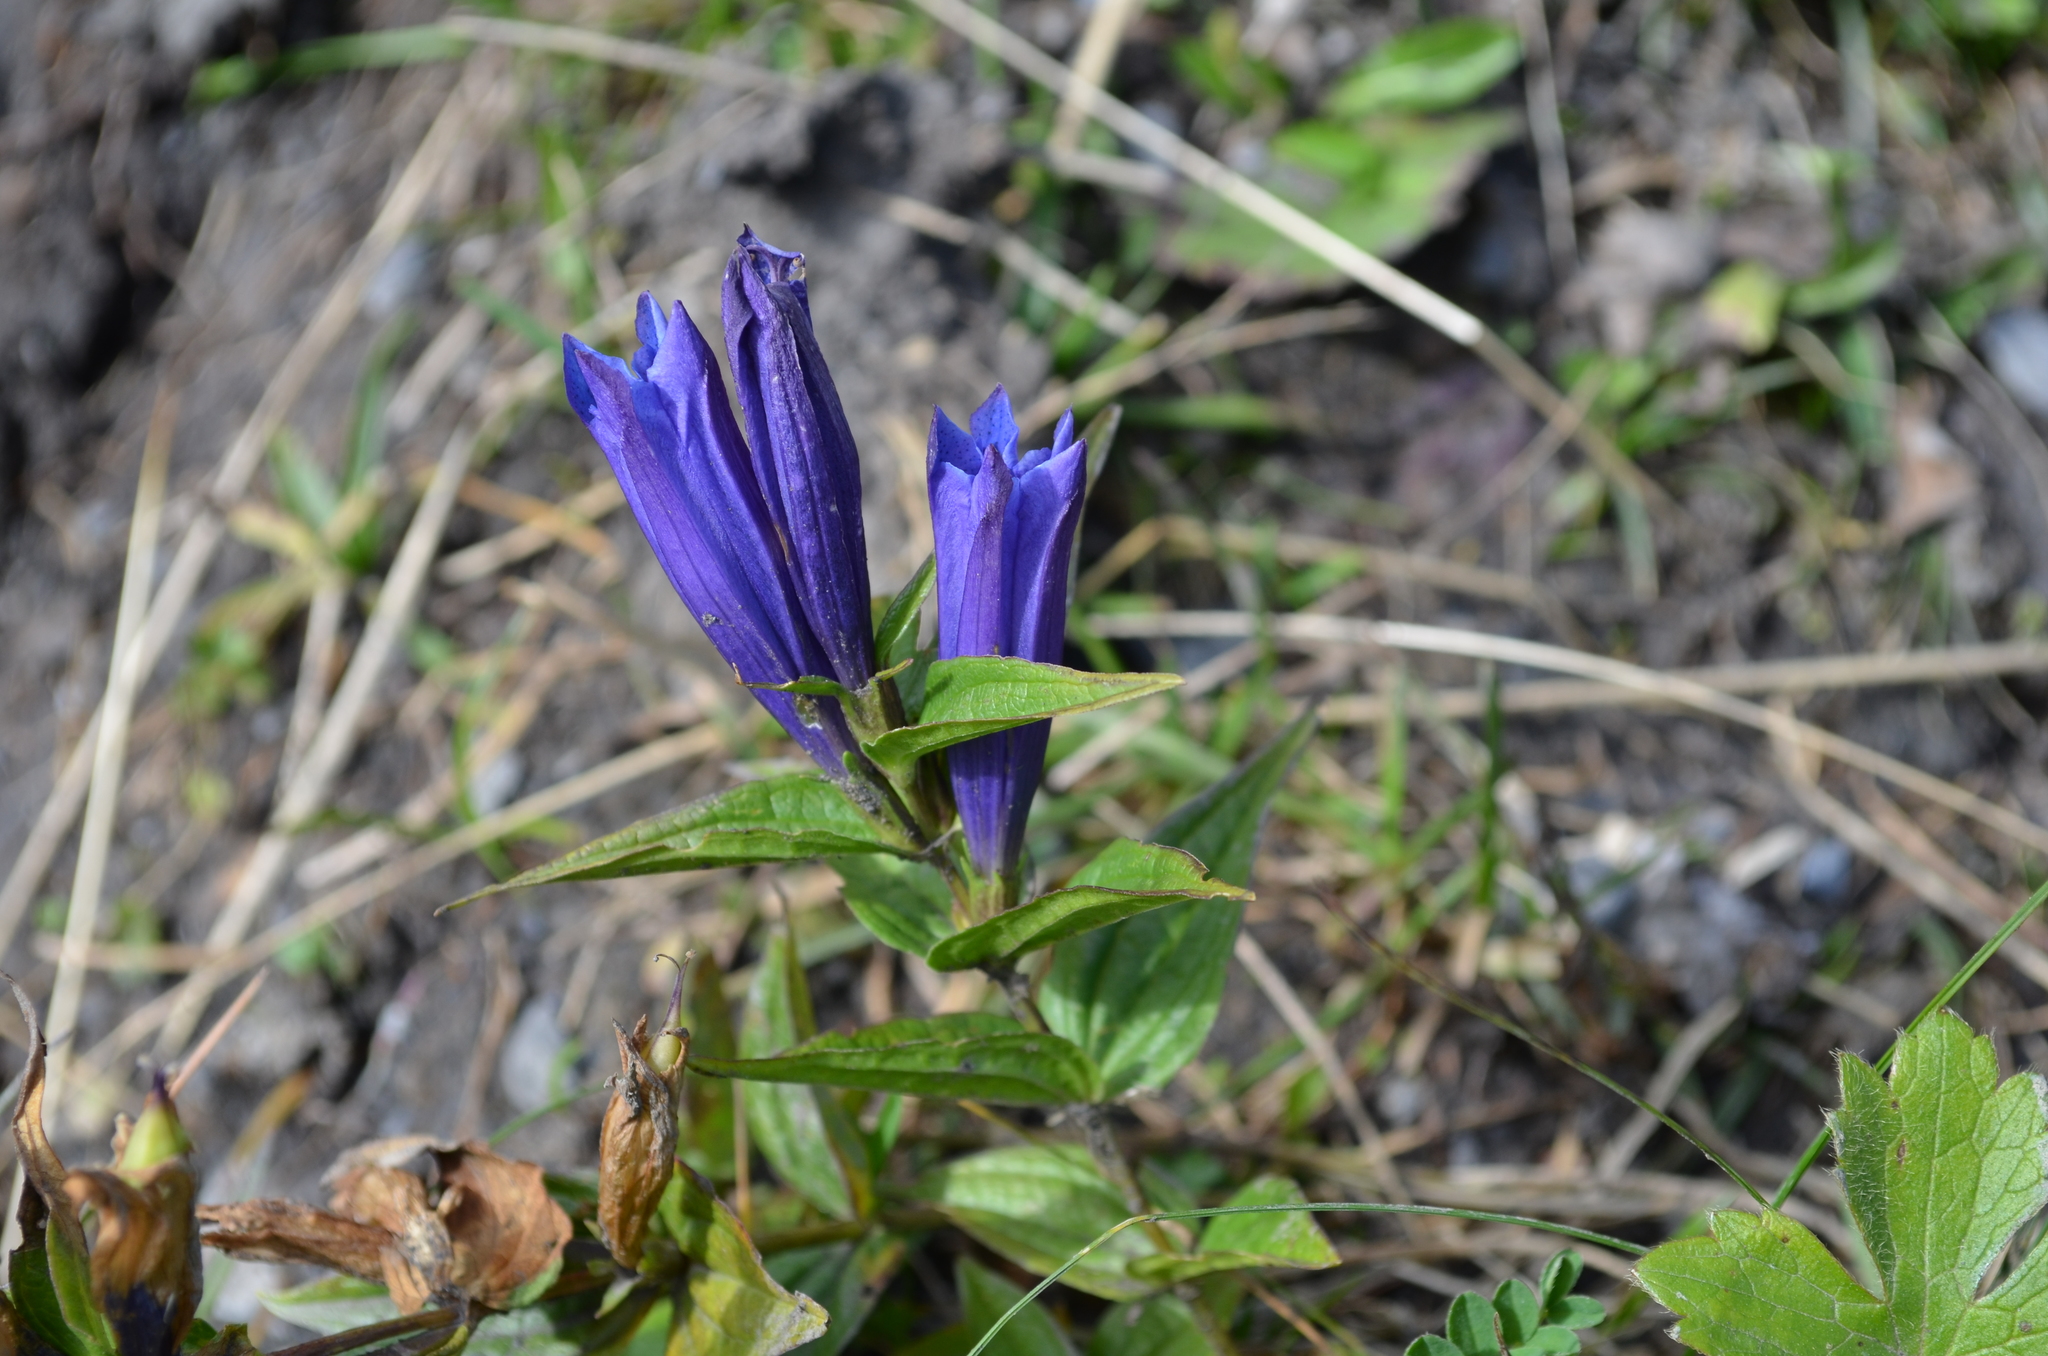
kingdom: Plantae
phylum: Tracheophyta
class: Magnoliopsida
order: Gentianales
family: Gentianaceae
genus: Gentiana
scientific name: Gentiana asclepiadea
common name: Willow gentian
